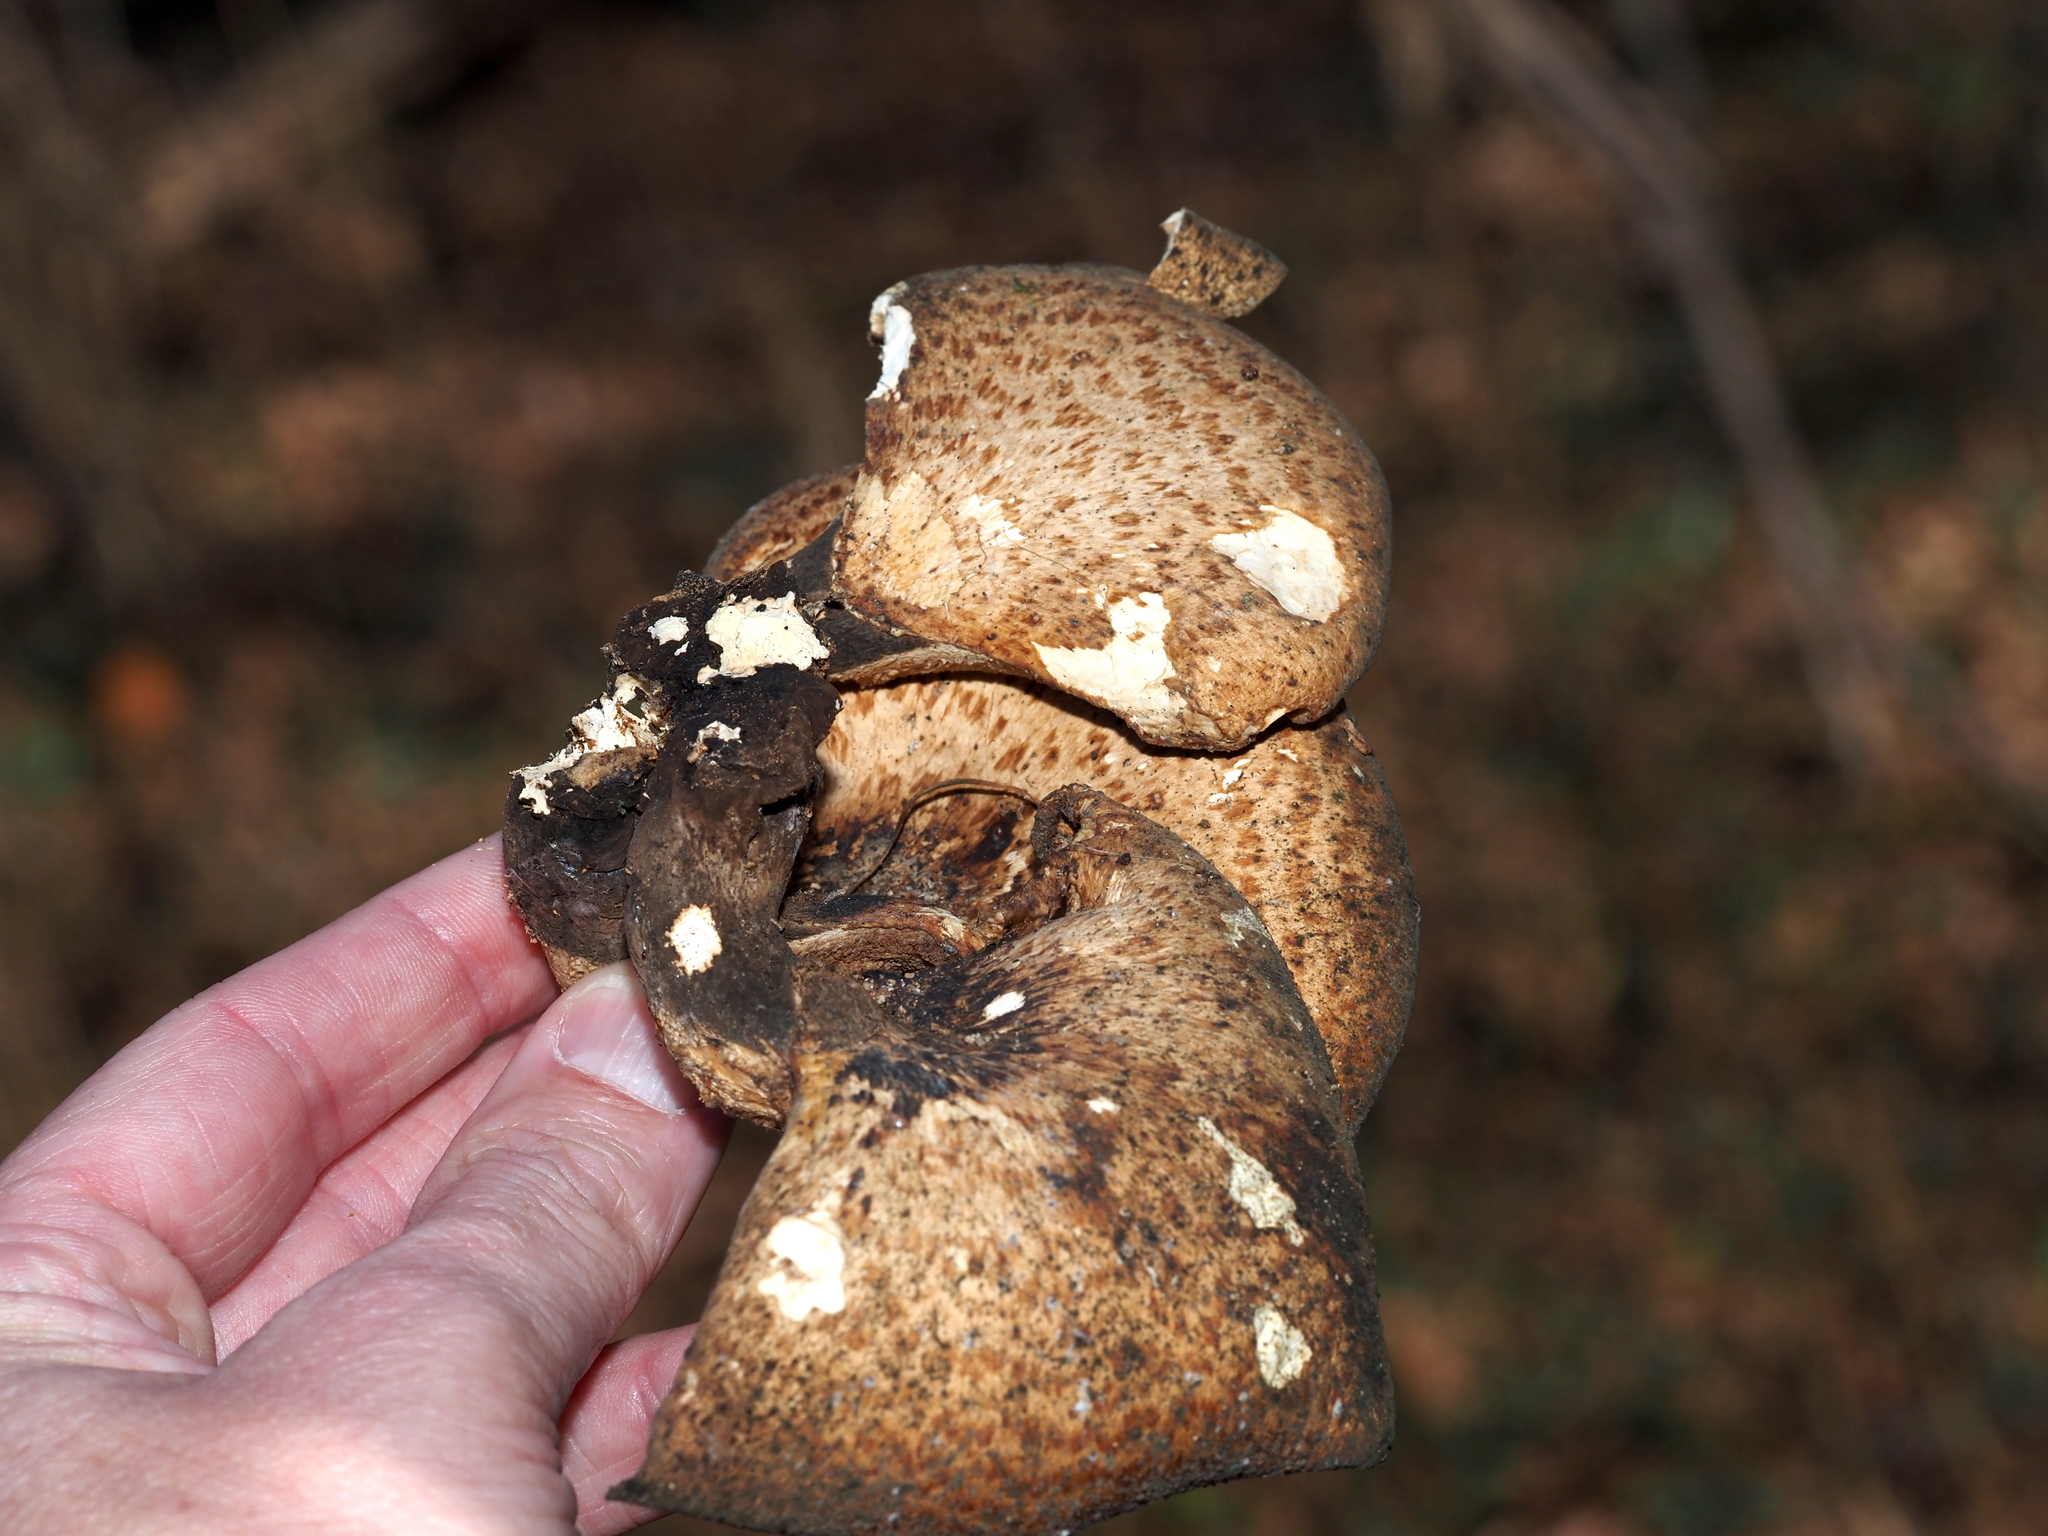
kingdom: Fungi
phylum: Basidiomycota
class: Agaricomycetes
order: Polyporales
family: Polyporaceae
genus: Cerioporus
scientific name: Cerioporus squamosus
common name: Dryad's saddle
